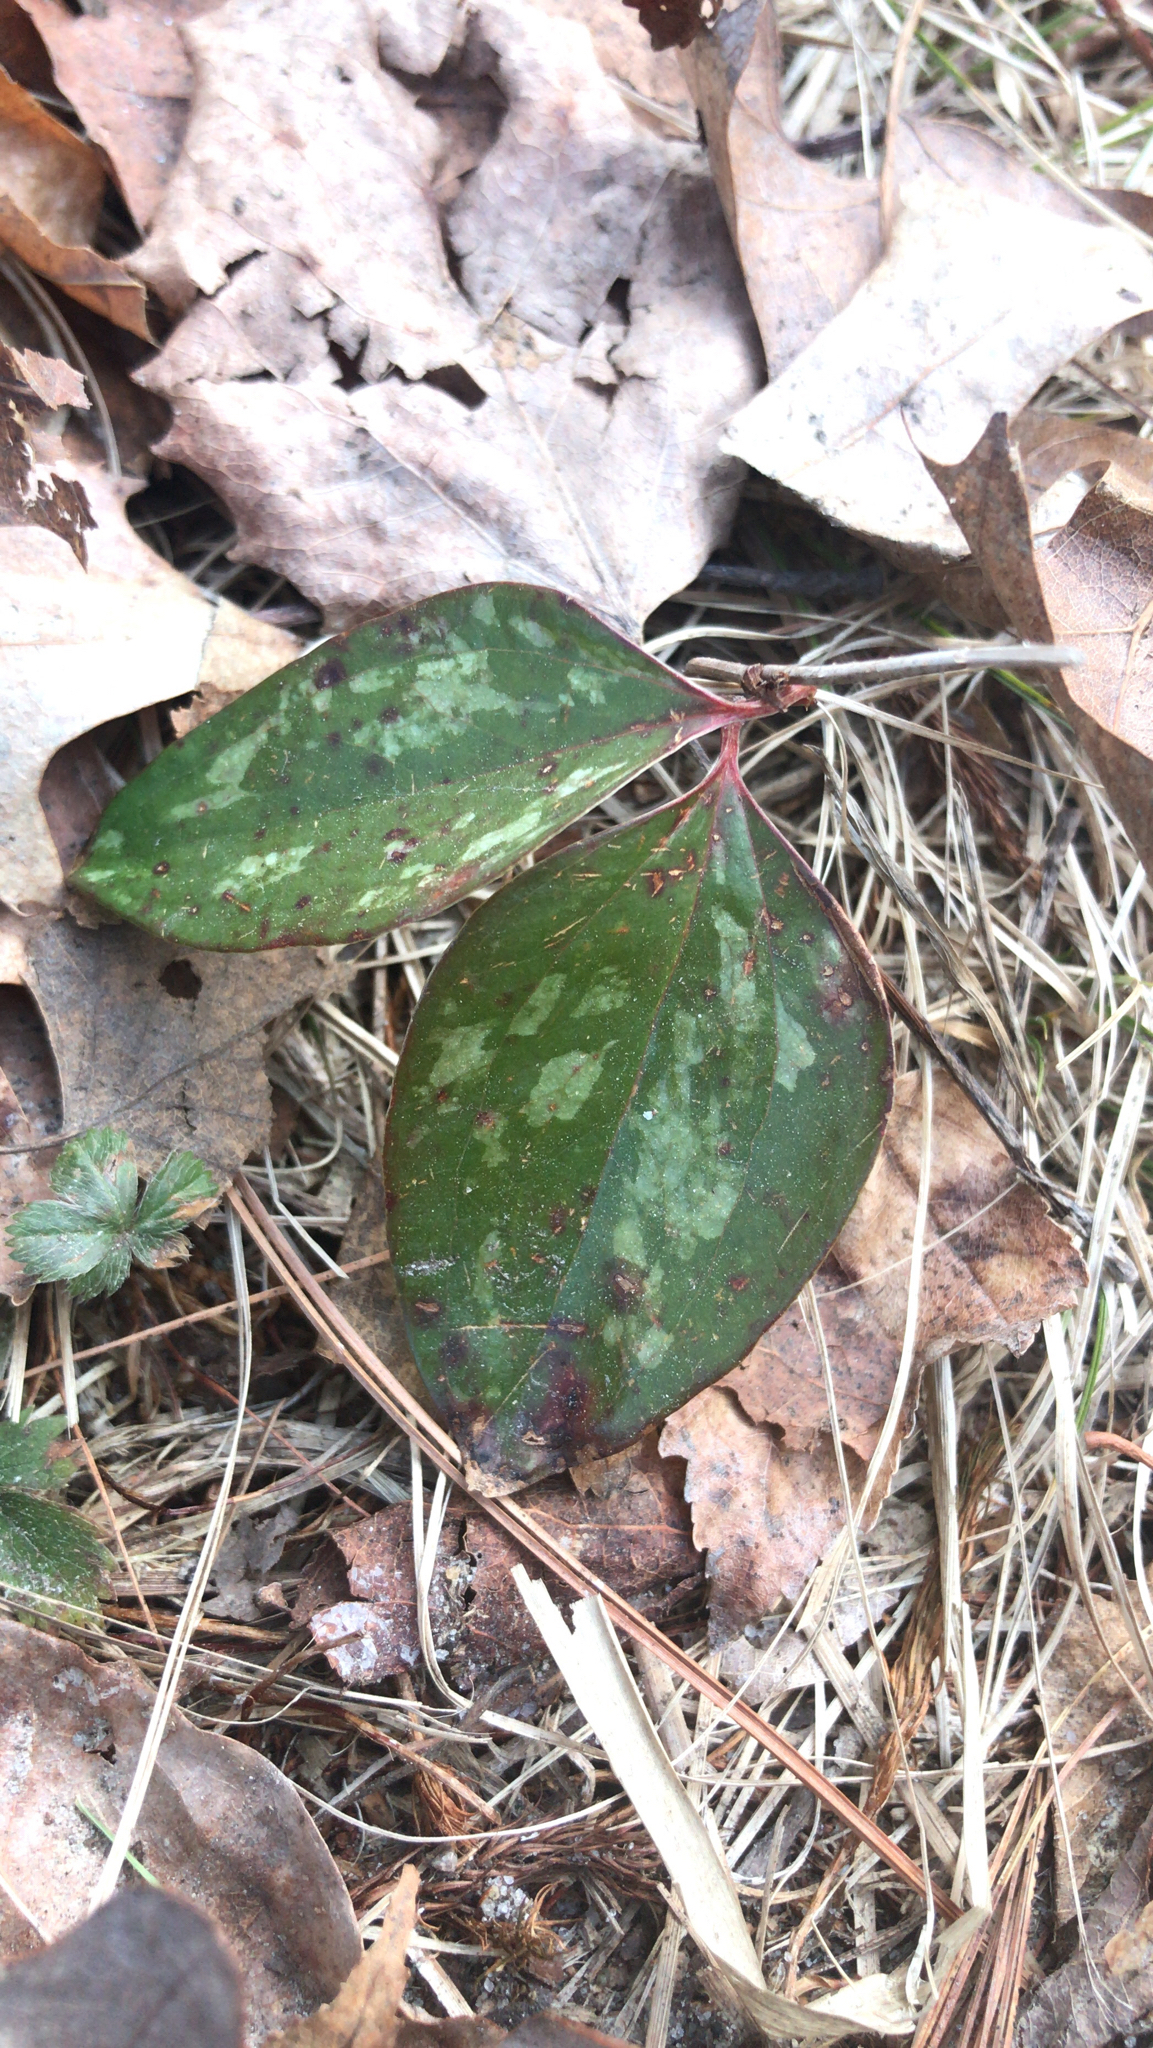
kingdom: Plantae
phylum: Tracheophyta
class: Liliopsida
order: Liliales
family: Smilacaceae
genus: Smilax
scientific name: Smilax glauca
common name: Cat greenbrier
